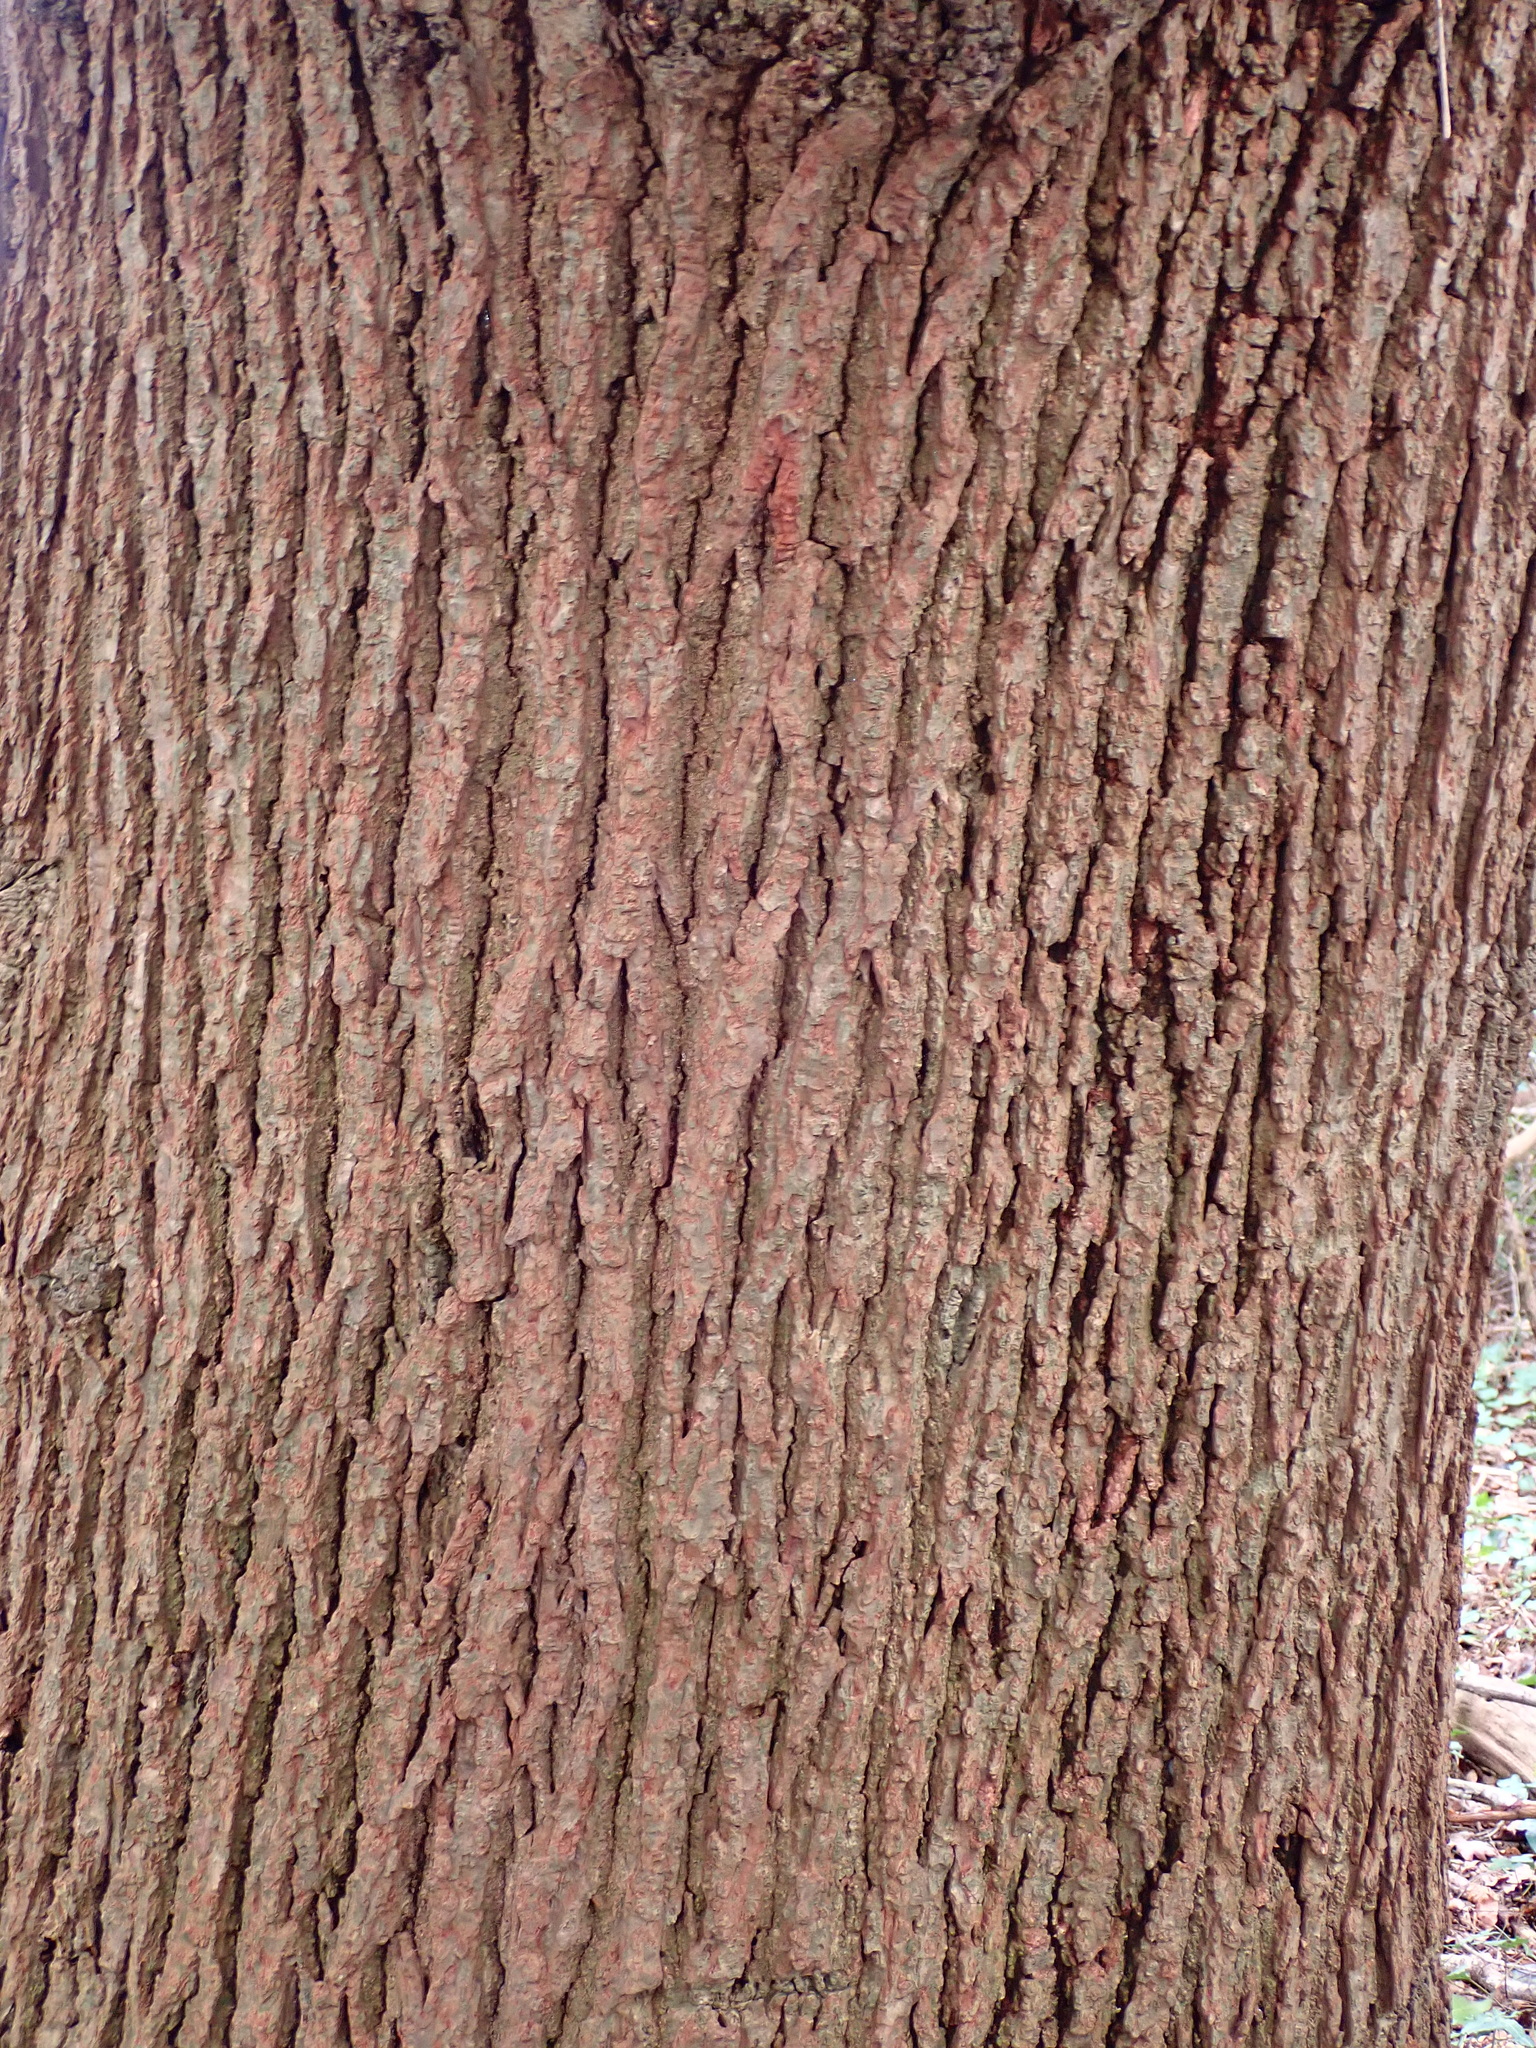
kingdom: Plantae
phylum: Tracheophyta
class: Magnoliopsida
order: Fagales
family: Fagaceae
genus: Quercus
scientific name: Quercus robur
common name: Pedunculate oak
